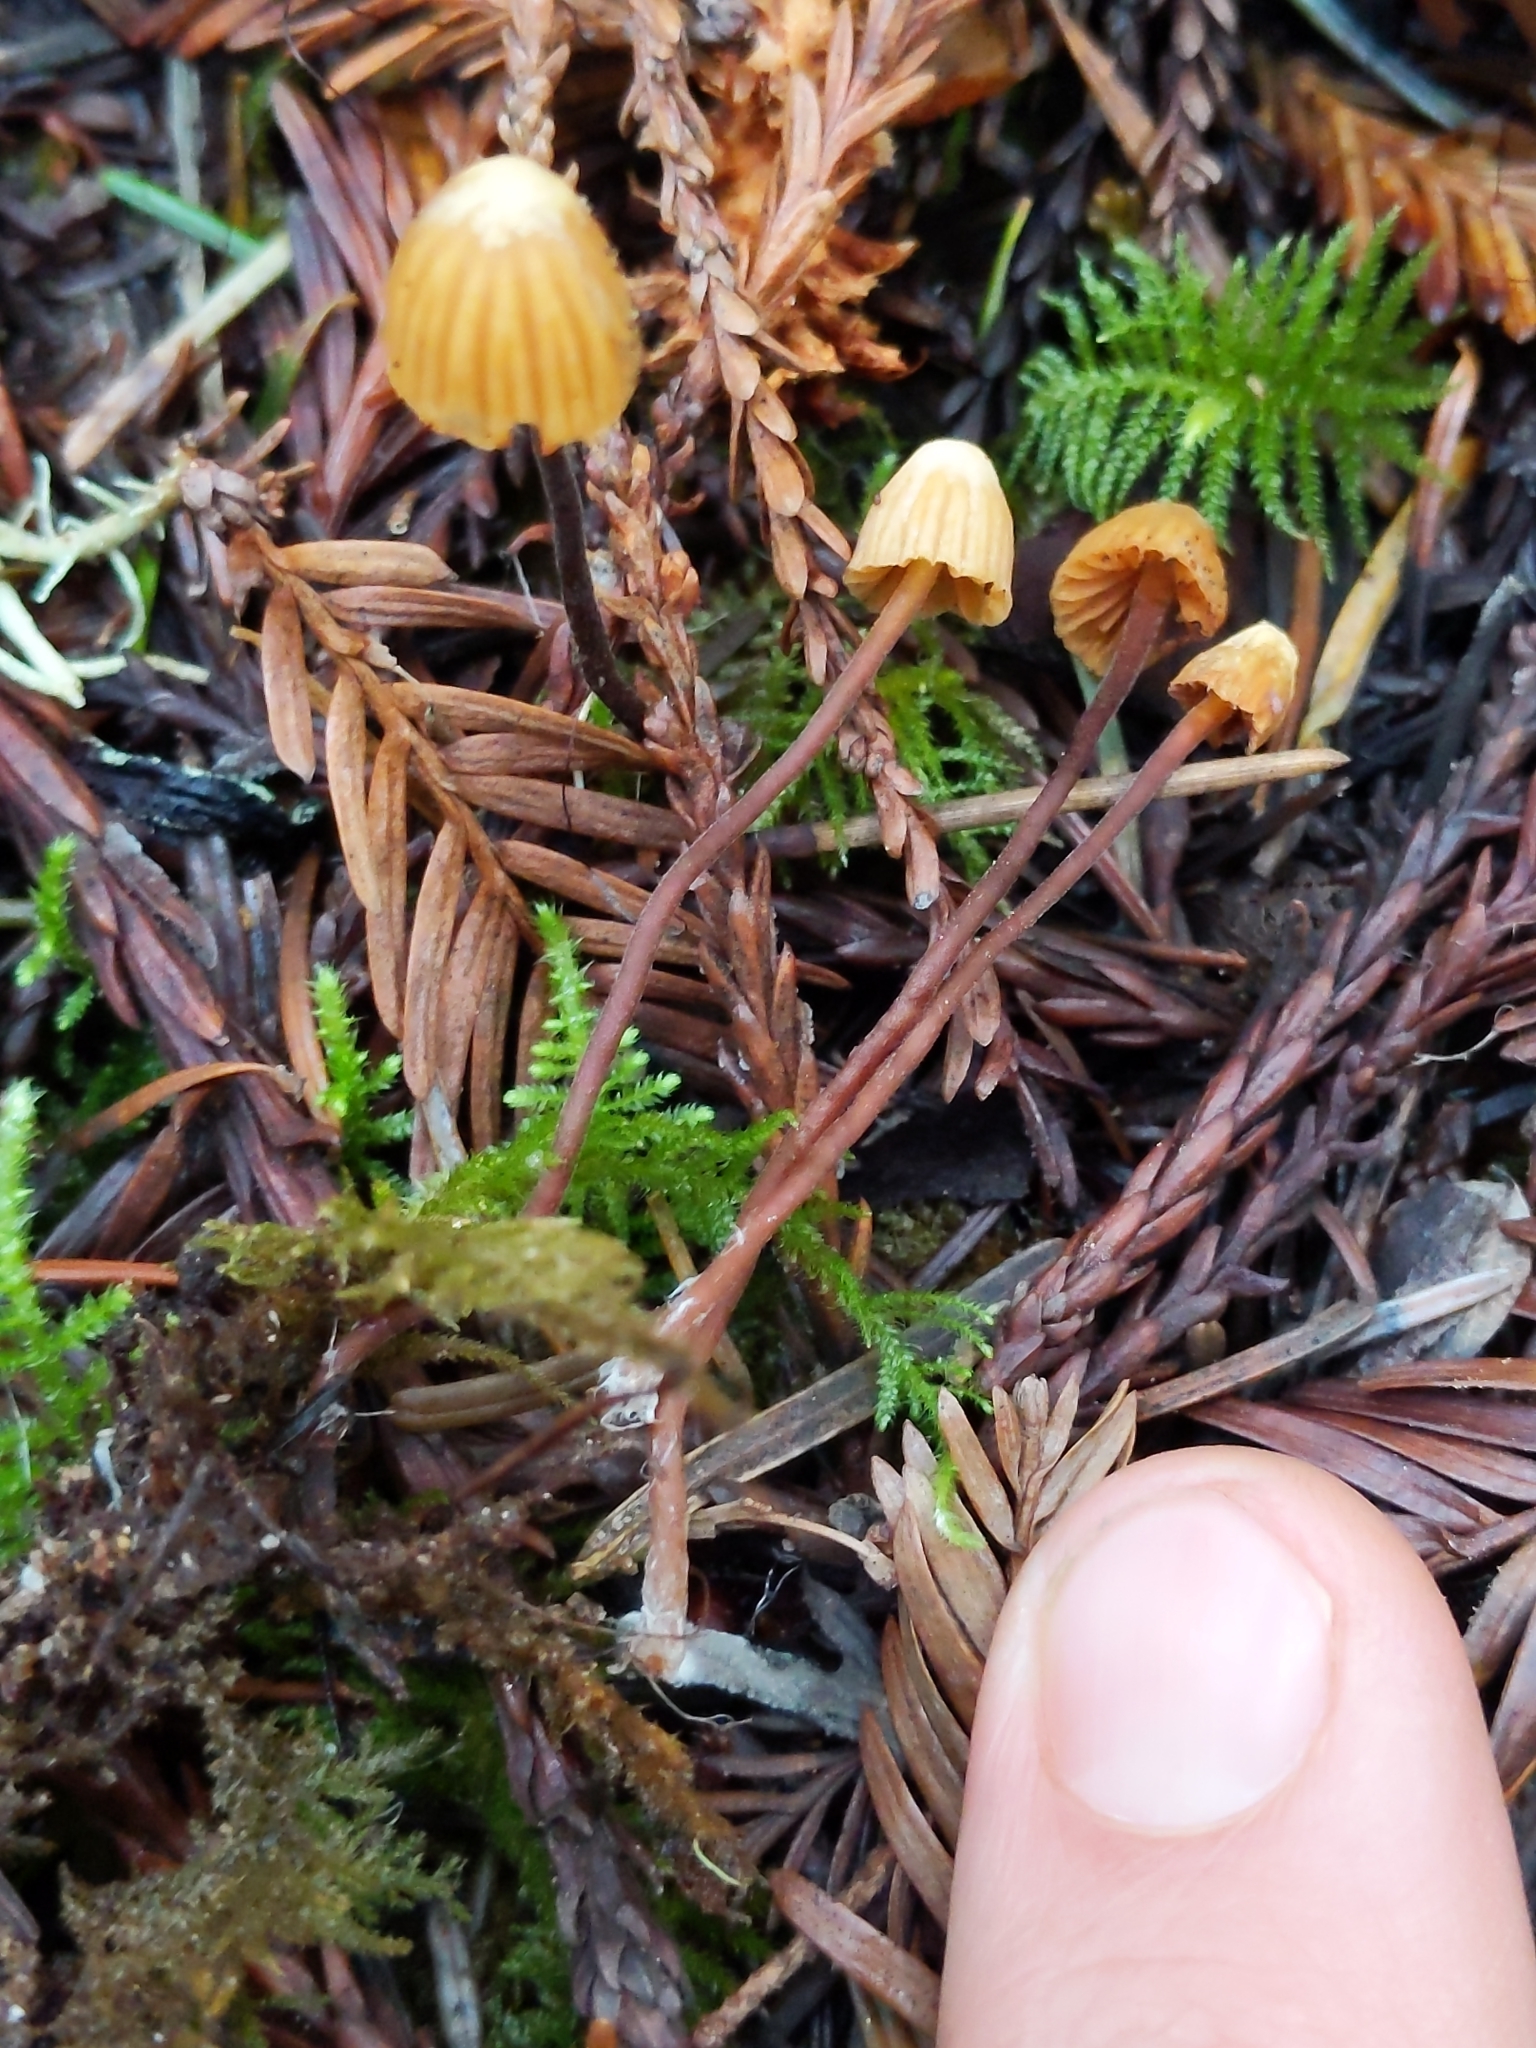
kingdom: Fungi
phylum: Basidiomycota
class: Agaricomycetes
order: Agaricales
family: Hymenogastraceae
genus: Galerina
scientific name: Galerina vittiformis
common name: Hairy leg bell
